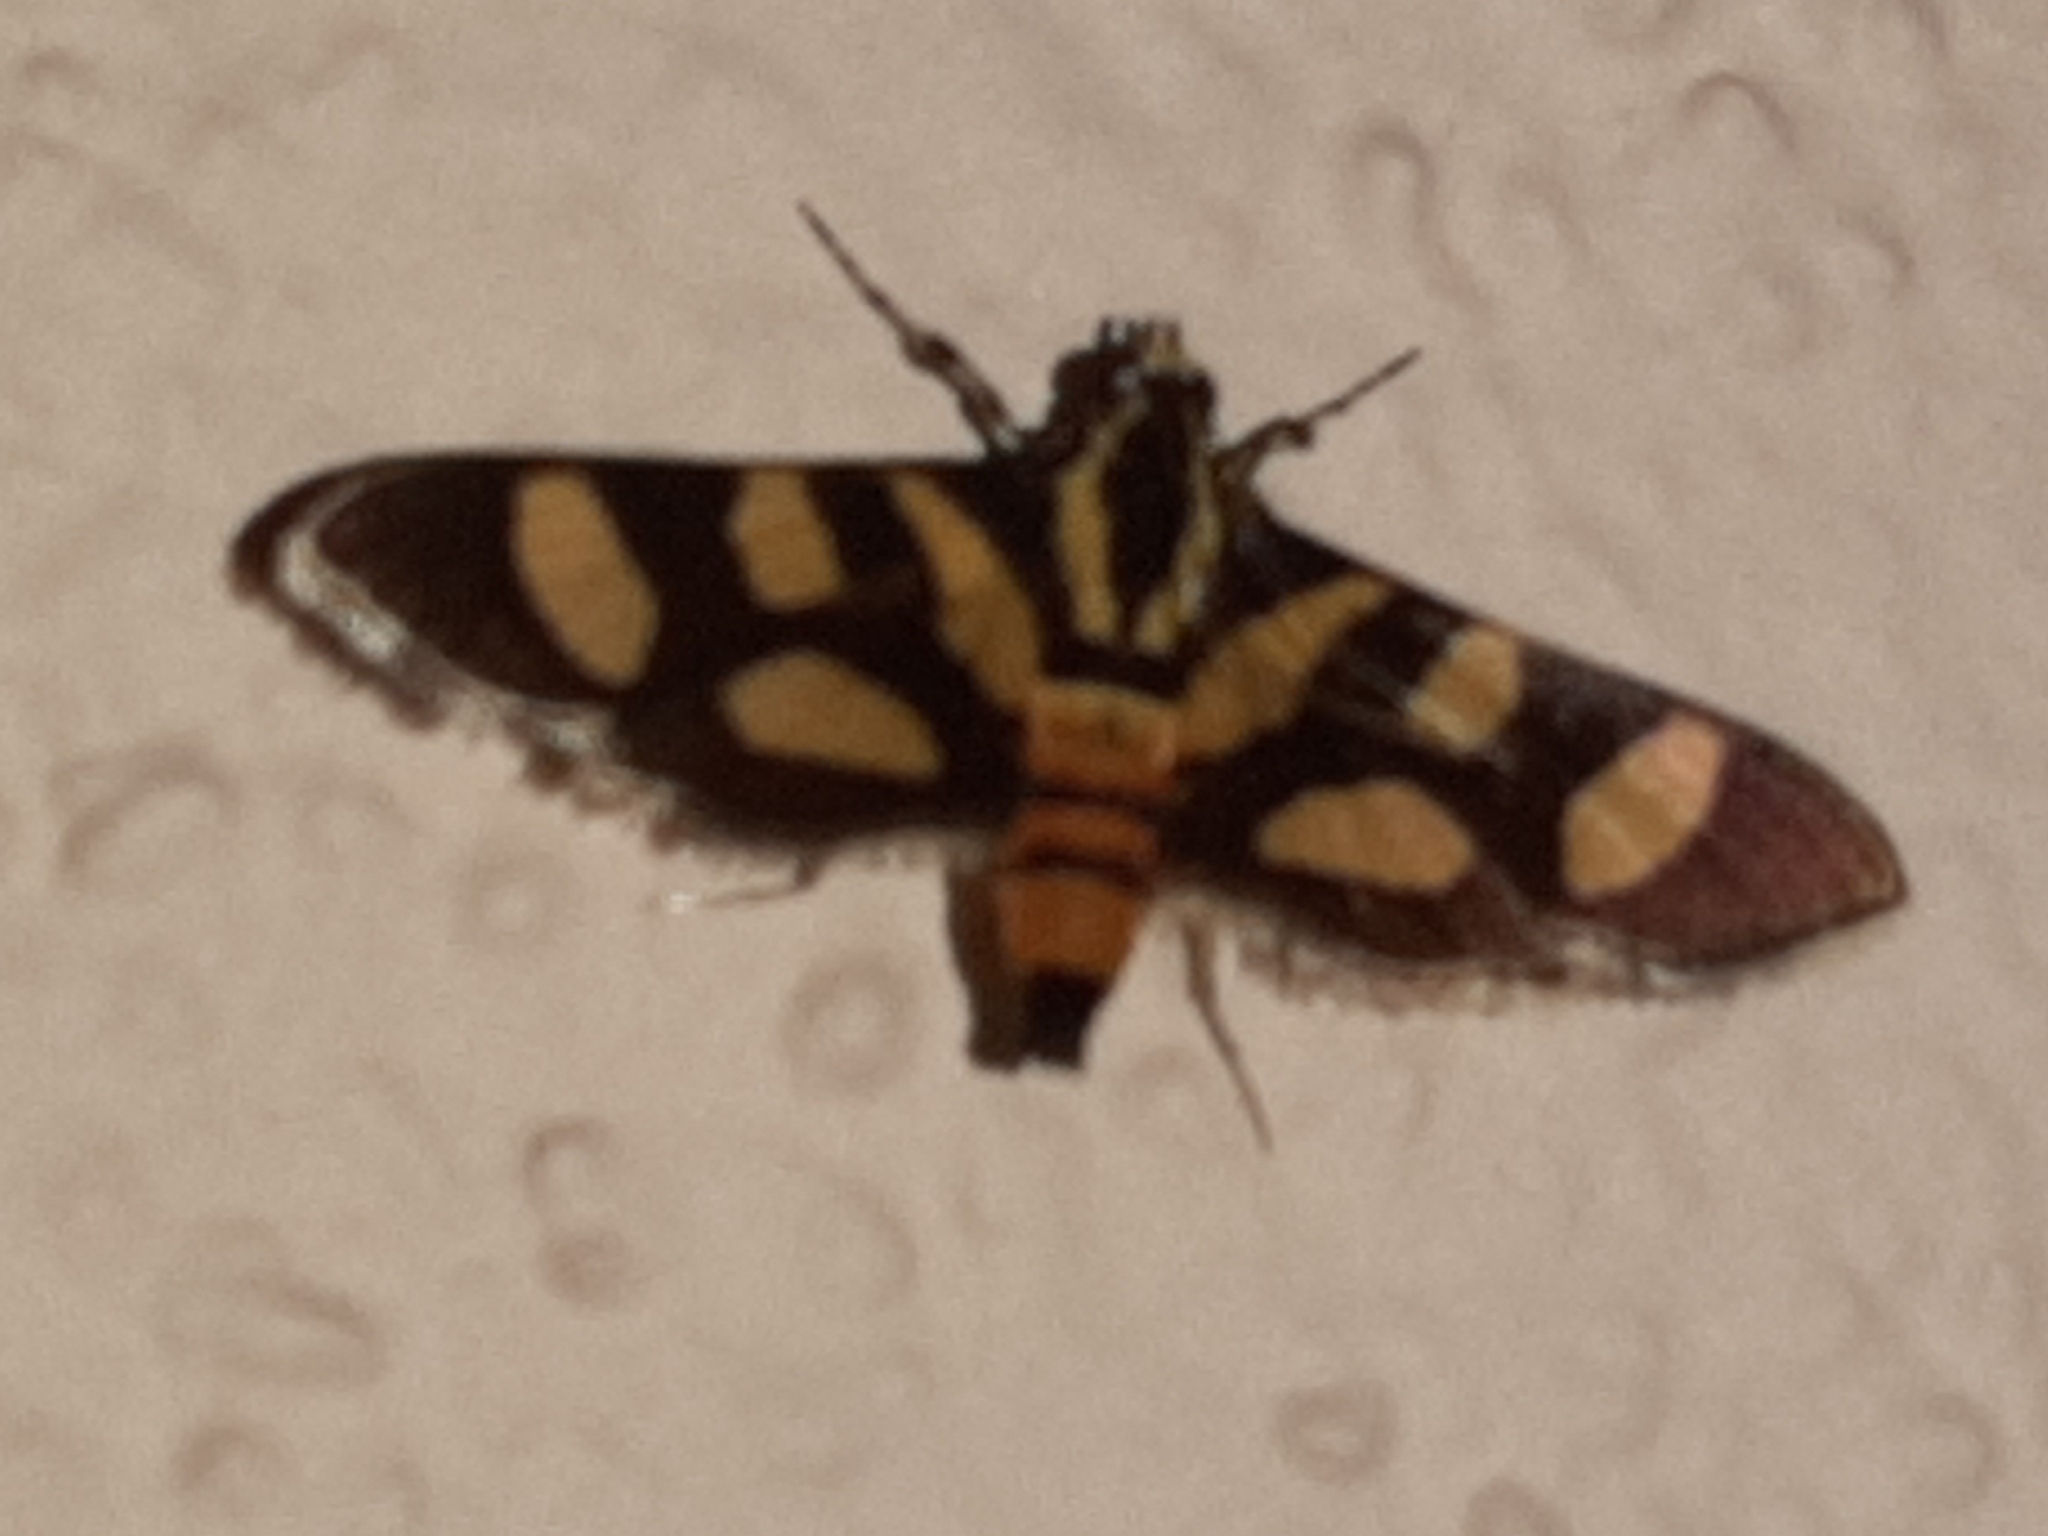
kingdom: Animalia
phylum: Arthropoda
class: Insecta
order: Lepidoptera
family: Crambidae
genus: Syngamia
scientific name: Syngamia florella
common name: Orange-spotted flower moth
